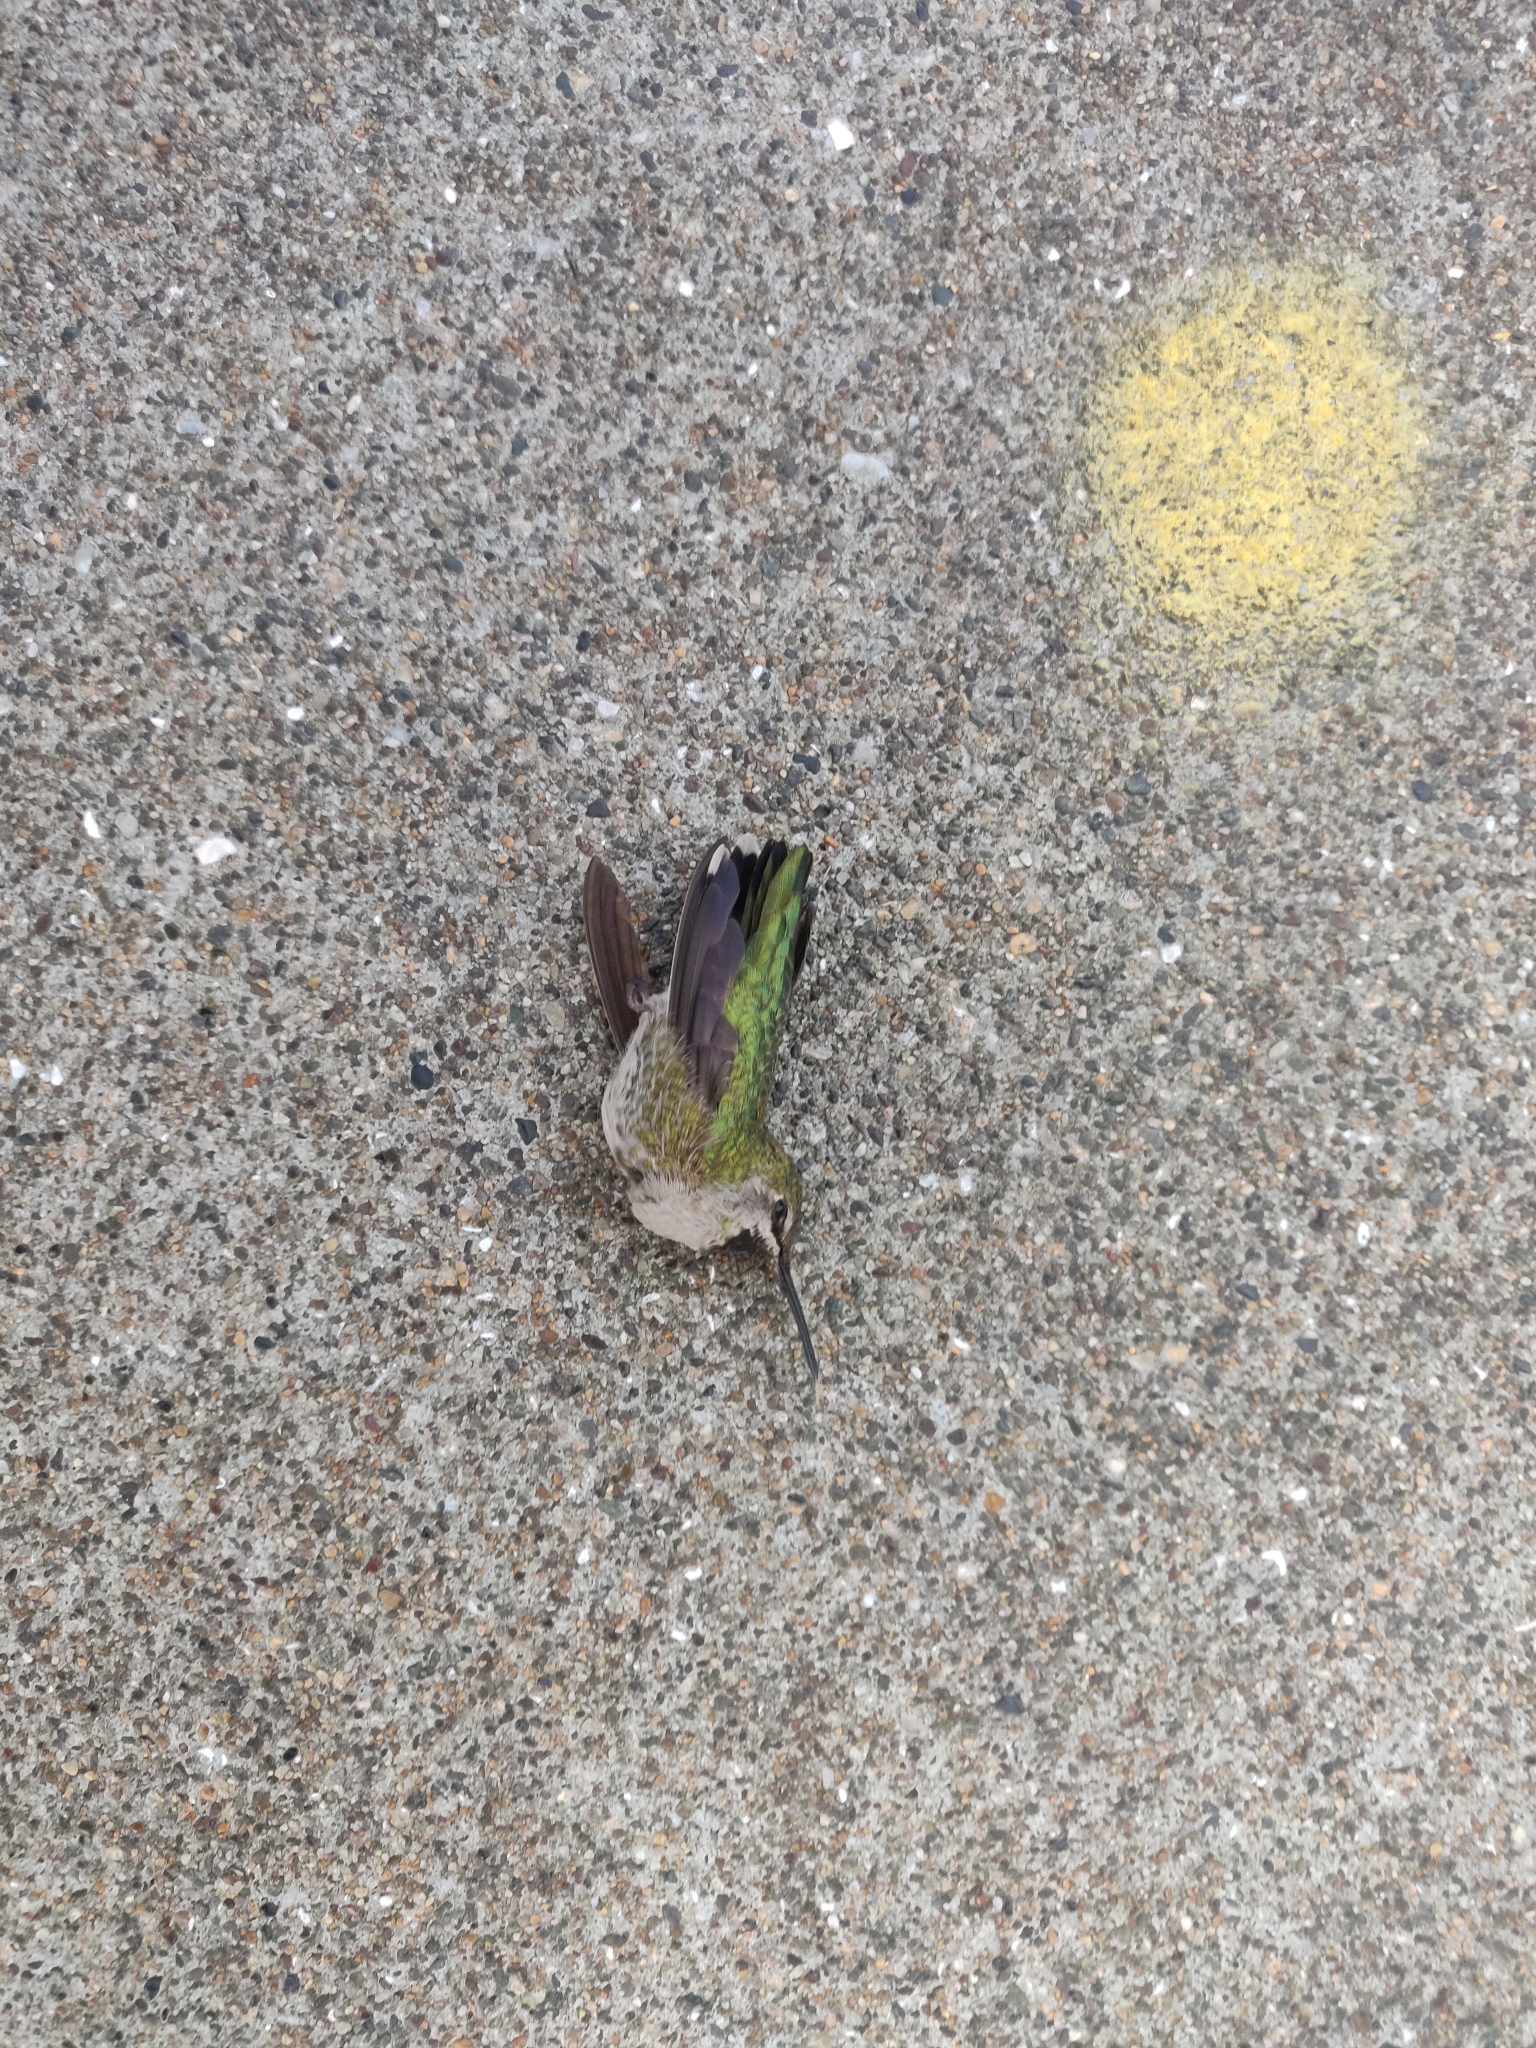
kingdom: Animalia
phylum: Chordata
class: Aves
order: Apodiformes
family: Trochilidae
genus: Calypte
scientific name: Calypte anna
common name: Anna's hummingbird
